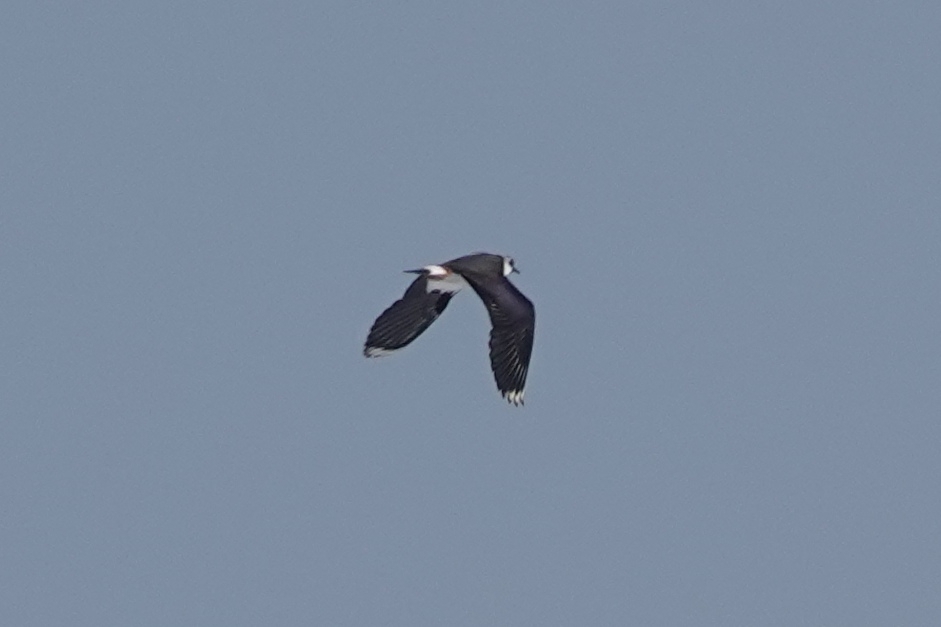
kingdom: Animalia
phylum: Chordata
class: Aves
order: Charadriiformes
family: Charadriidae
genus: Vanellus
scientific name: Vanellus vanellus
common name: Northern lapwing
